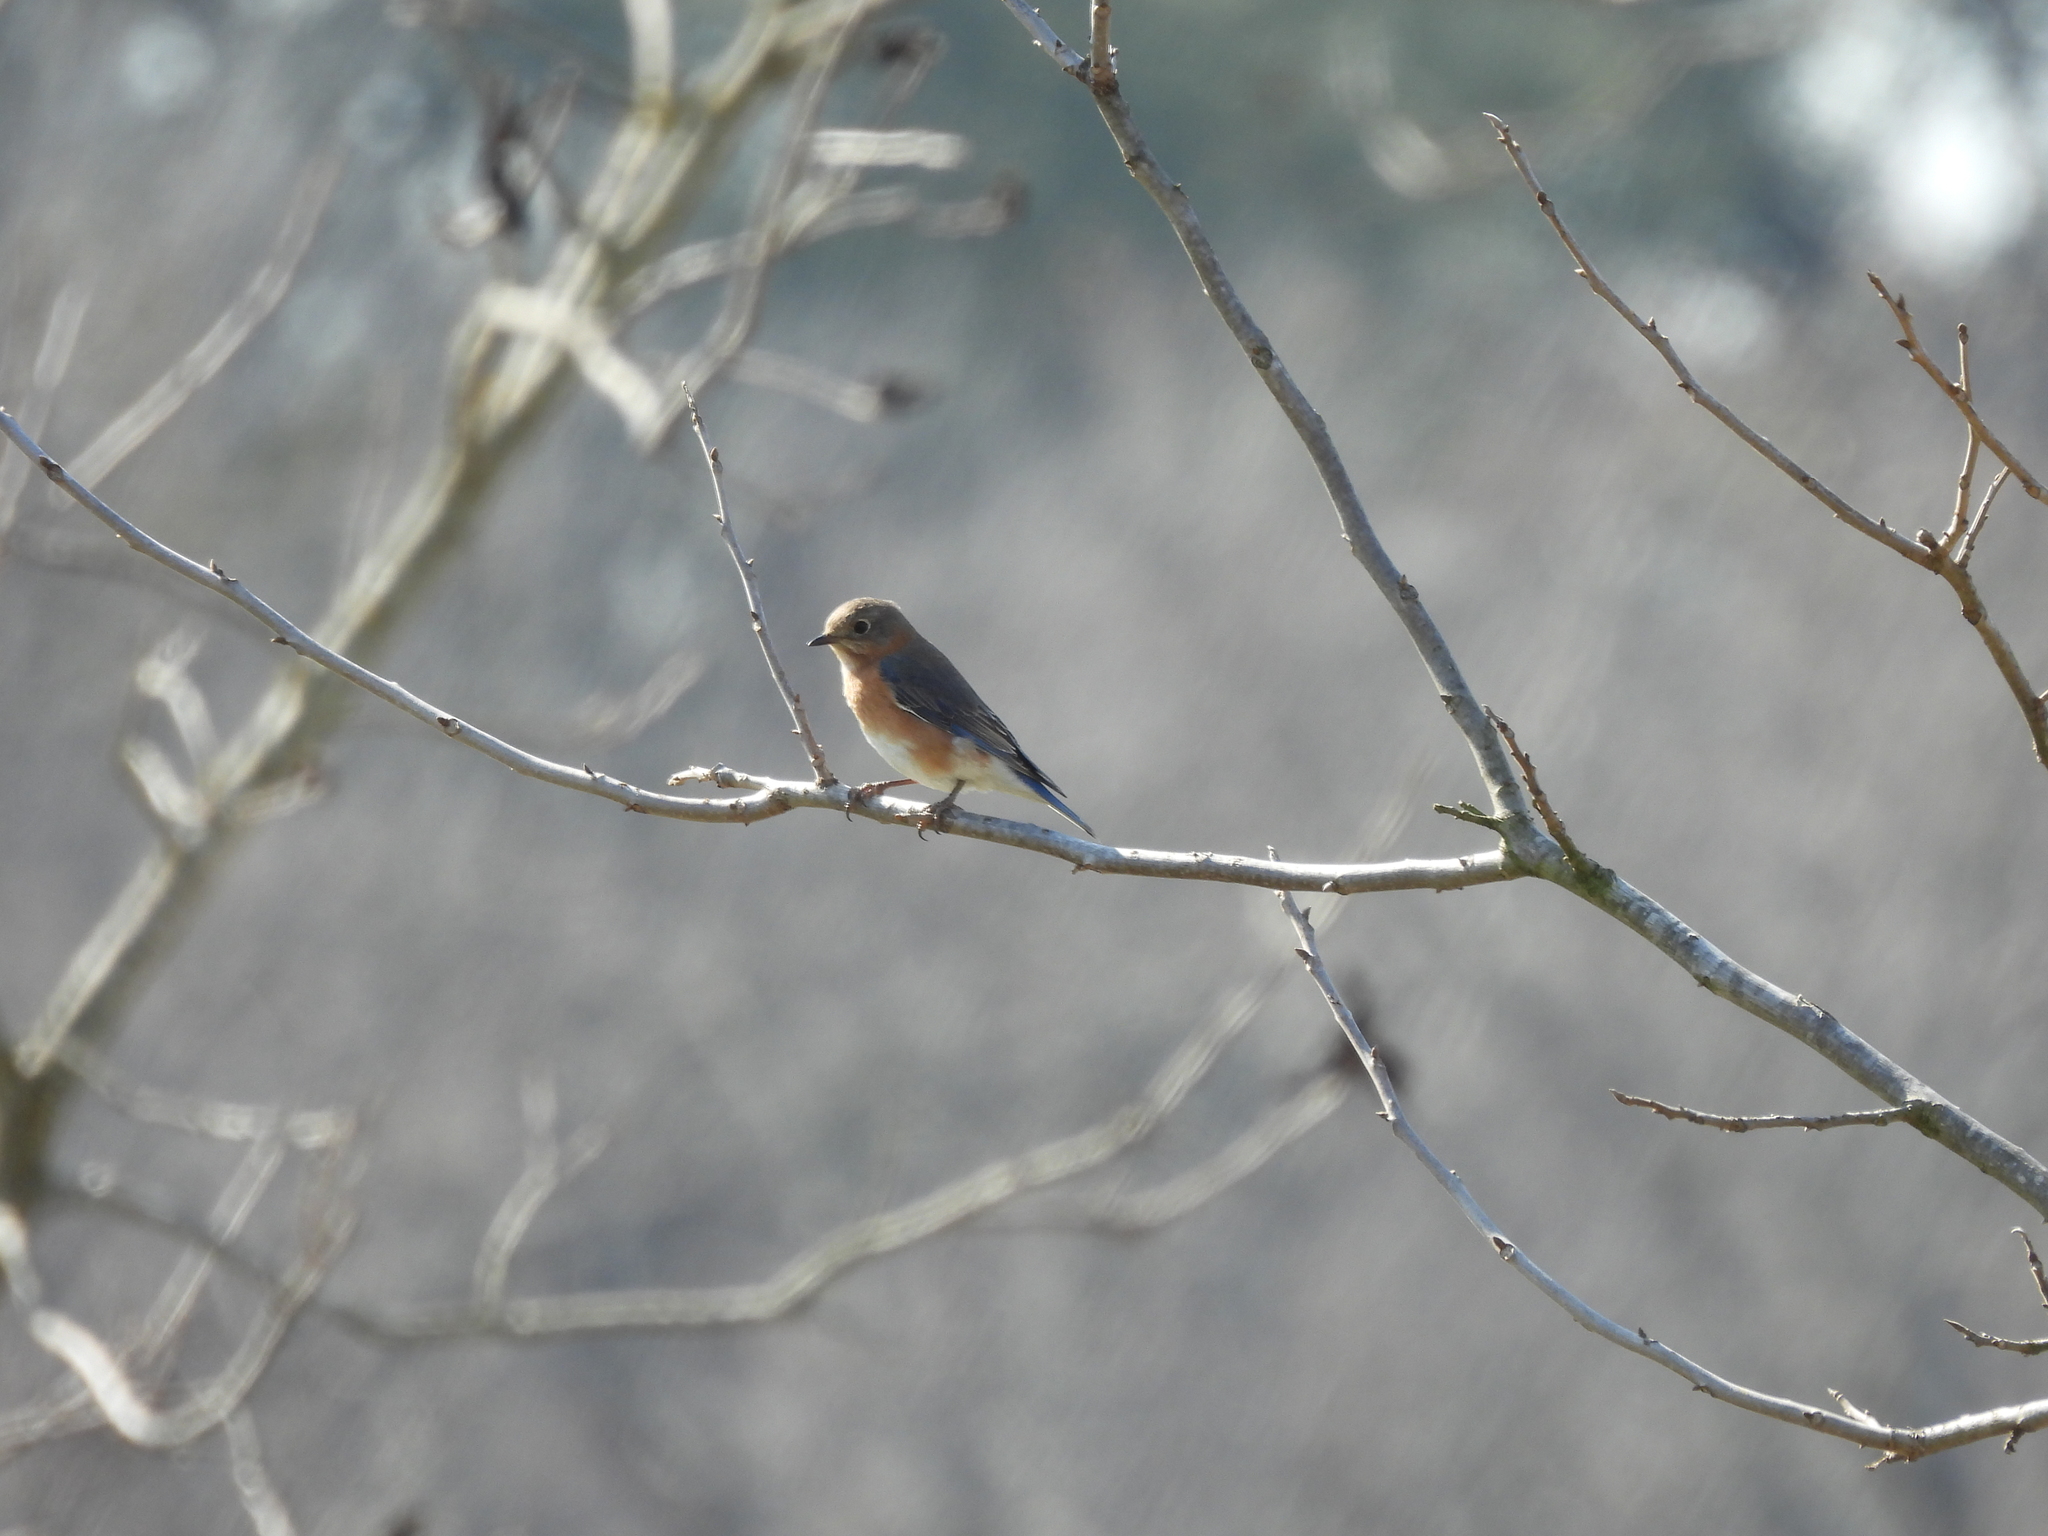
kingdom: Animalia
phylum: Chordata
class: Aves
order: Passeriformes
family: Turdidae
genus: Sialia
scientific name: Sialia sialis
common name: Eastern bluebird
